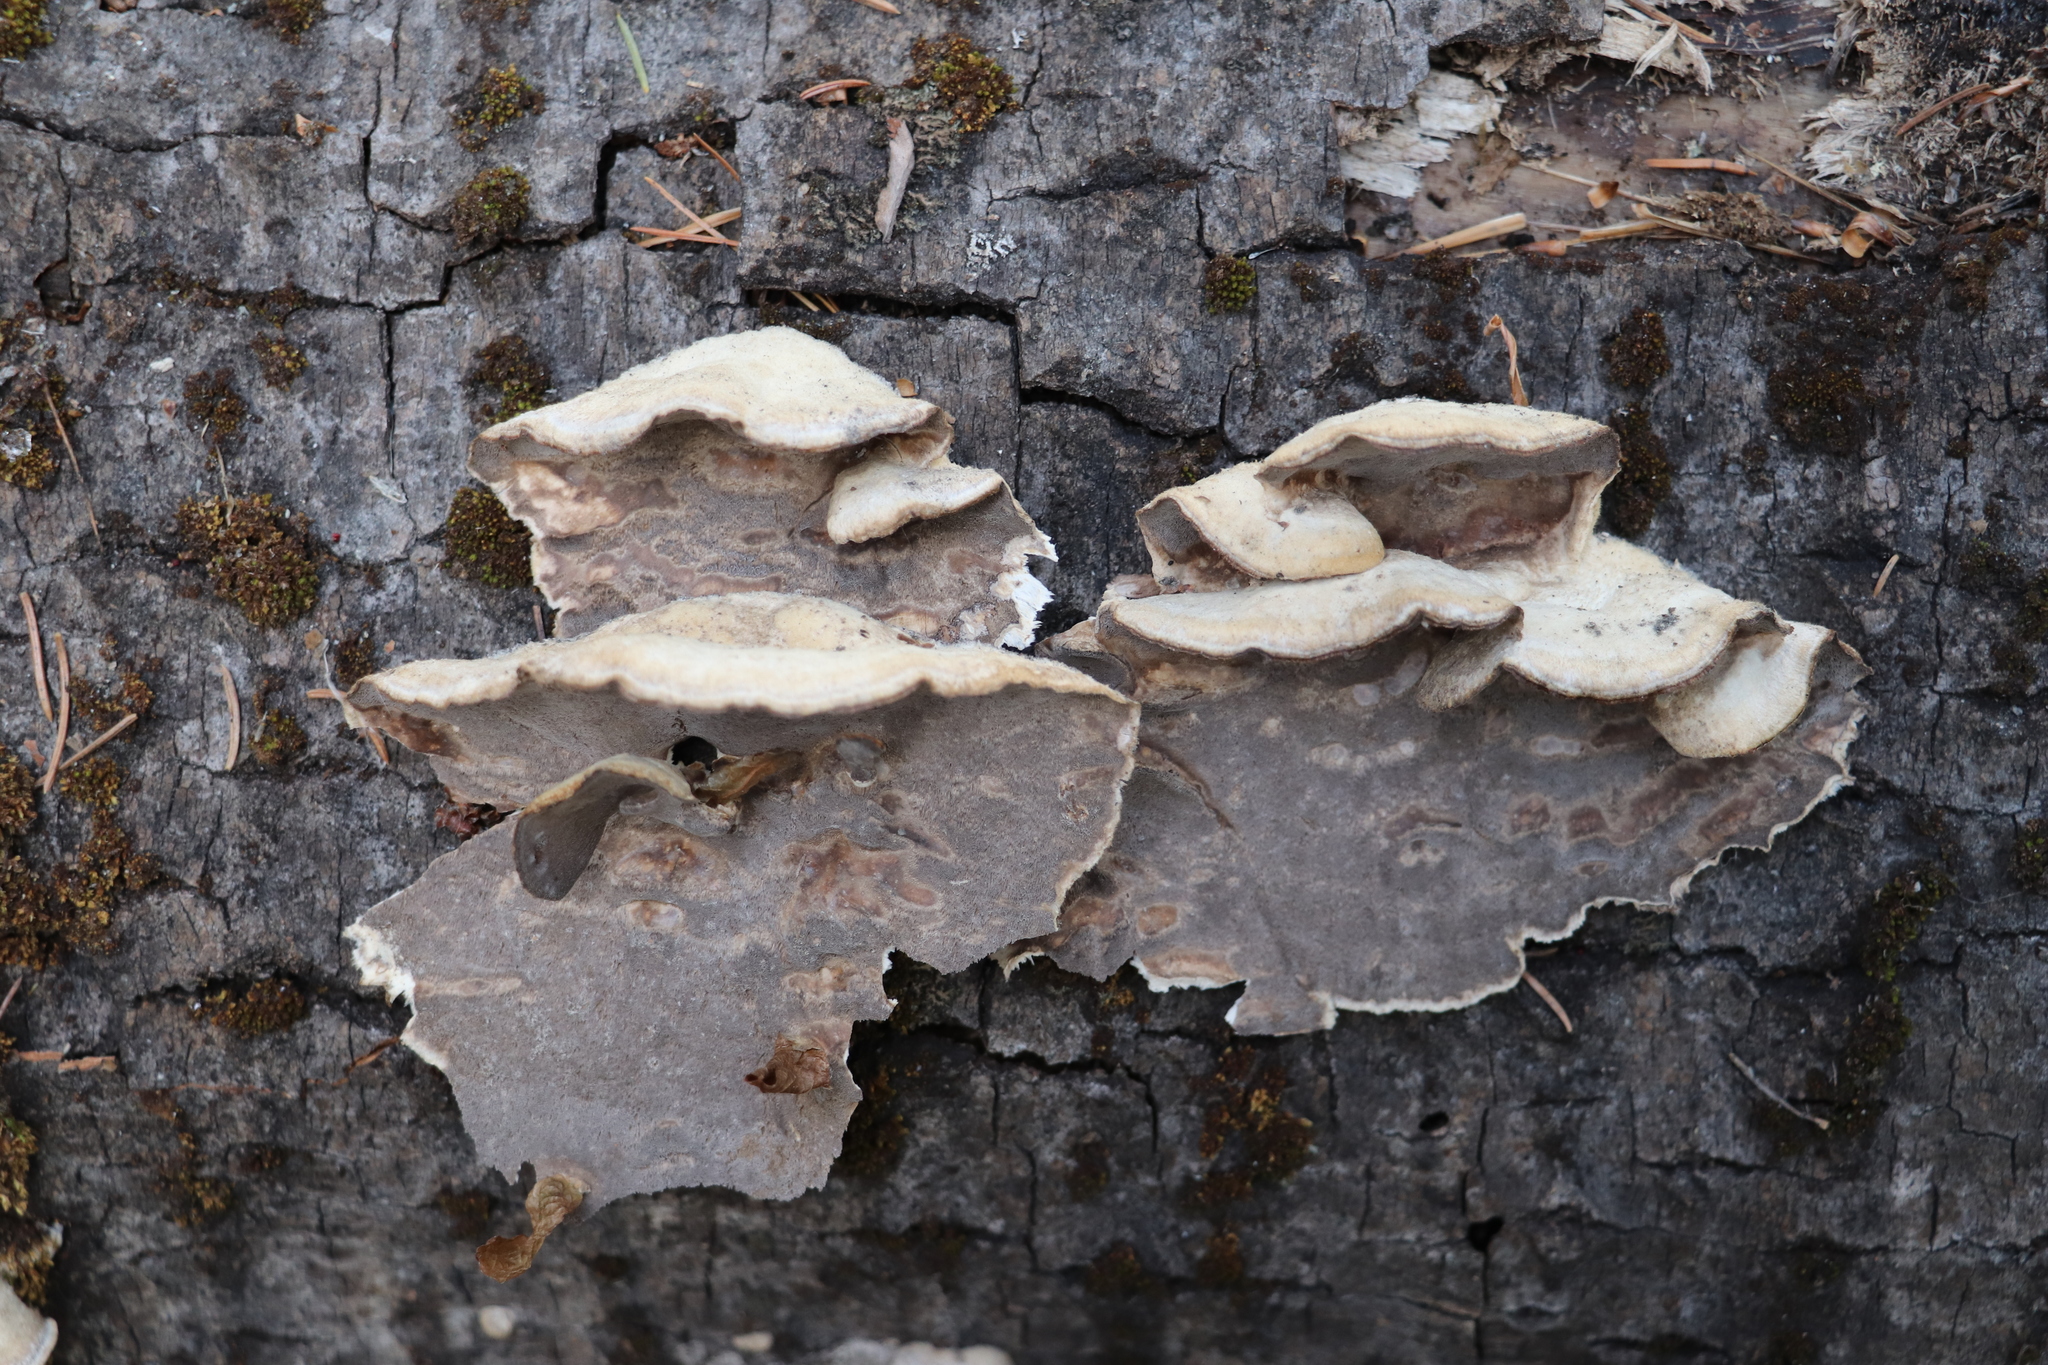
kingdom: Fungi
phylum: Basidiomycota
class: Agaricomycetes
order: Polyporales
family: Phanerochaetaceae
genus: Bjerkandera
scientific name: Bjerkandera adusta
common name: Smoky bracket
